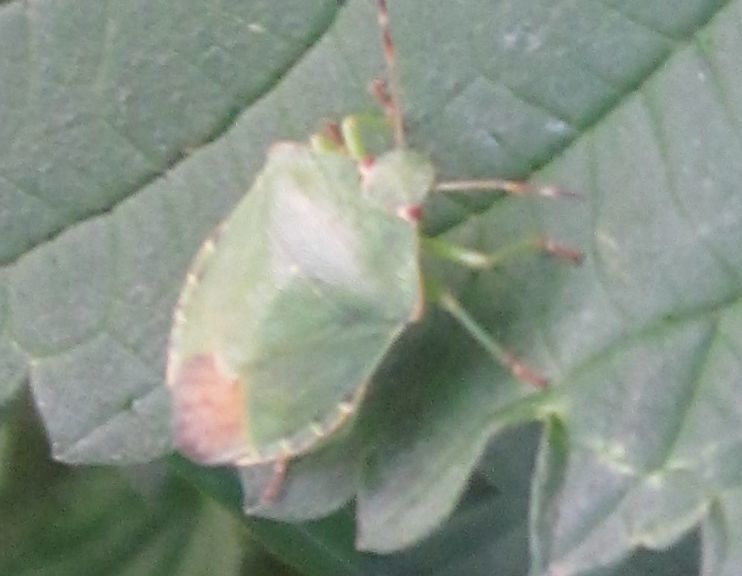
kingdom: Animalia
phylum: Arthropoda
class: Insecta
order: Hemiptera
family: Pentatomidae
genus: Palomena
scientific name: Palomena prasina
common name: Green shieldbug
